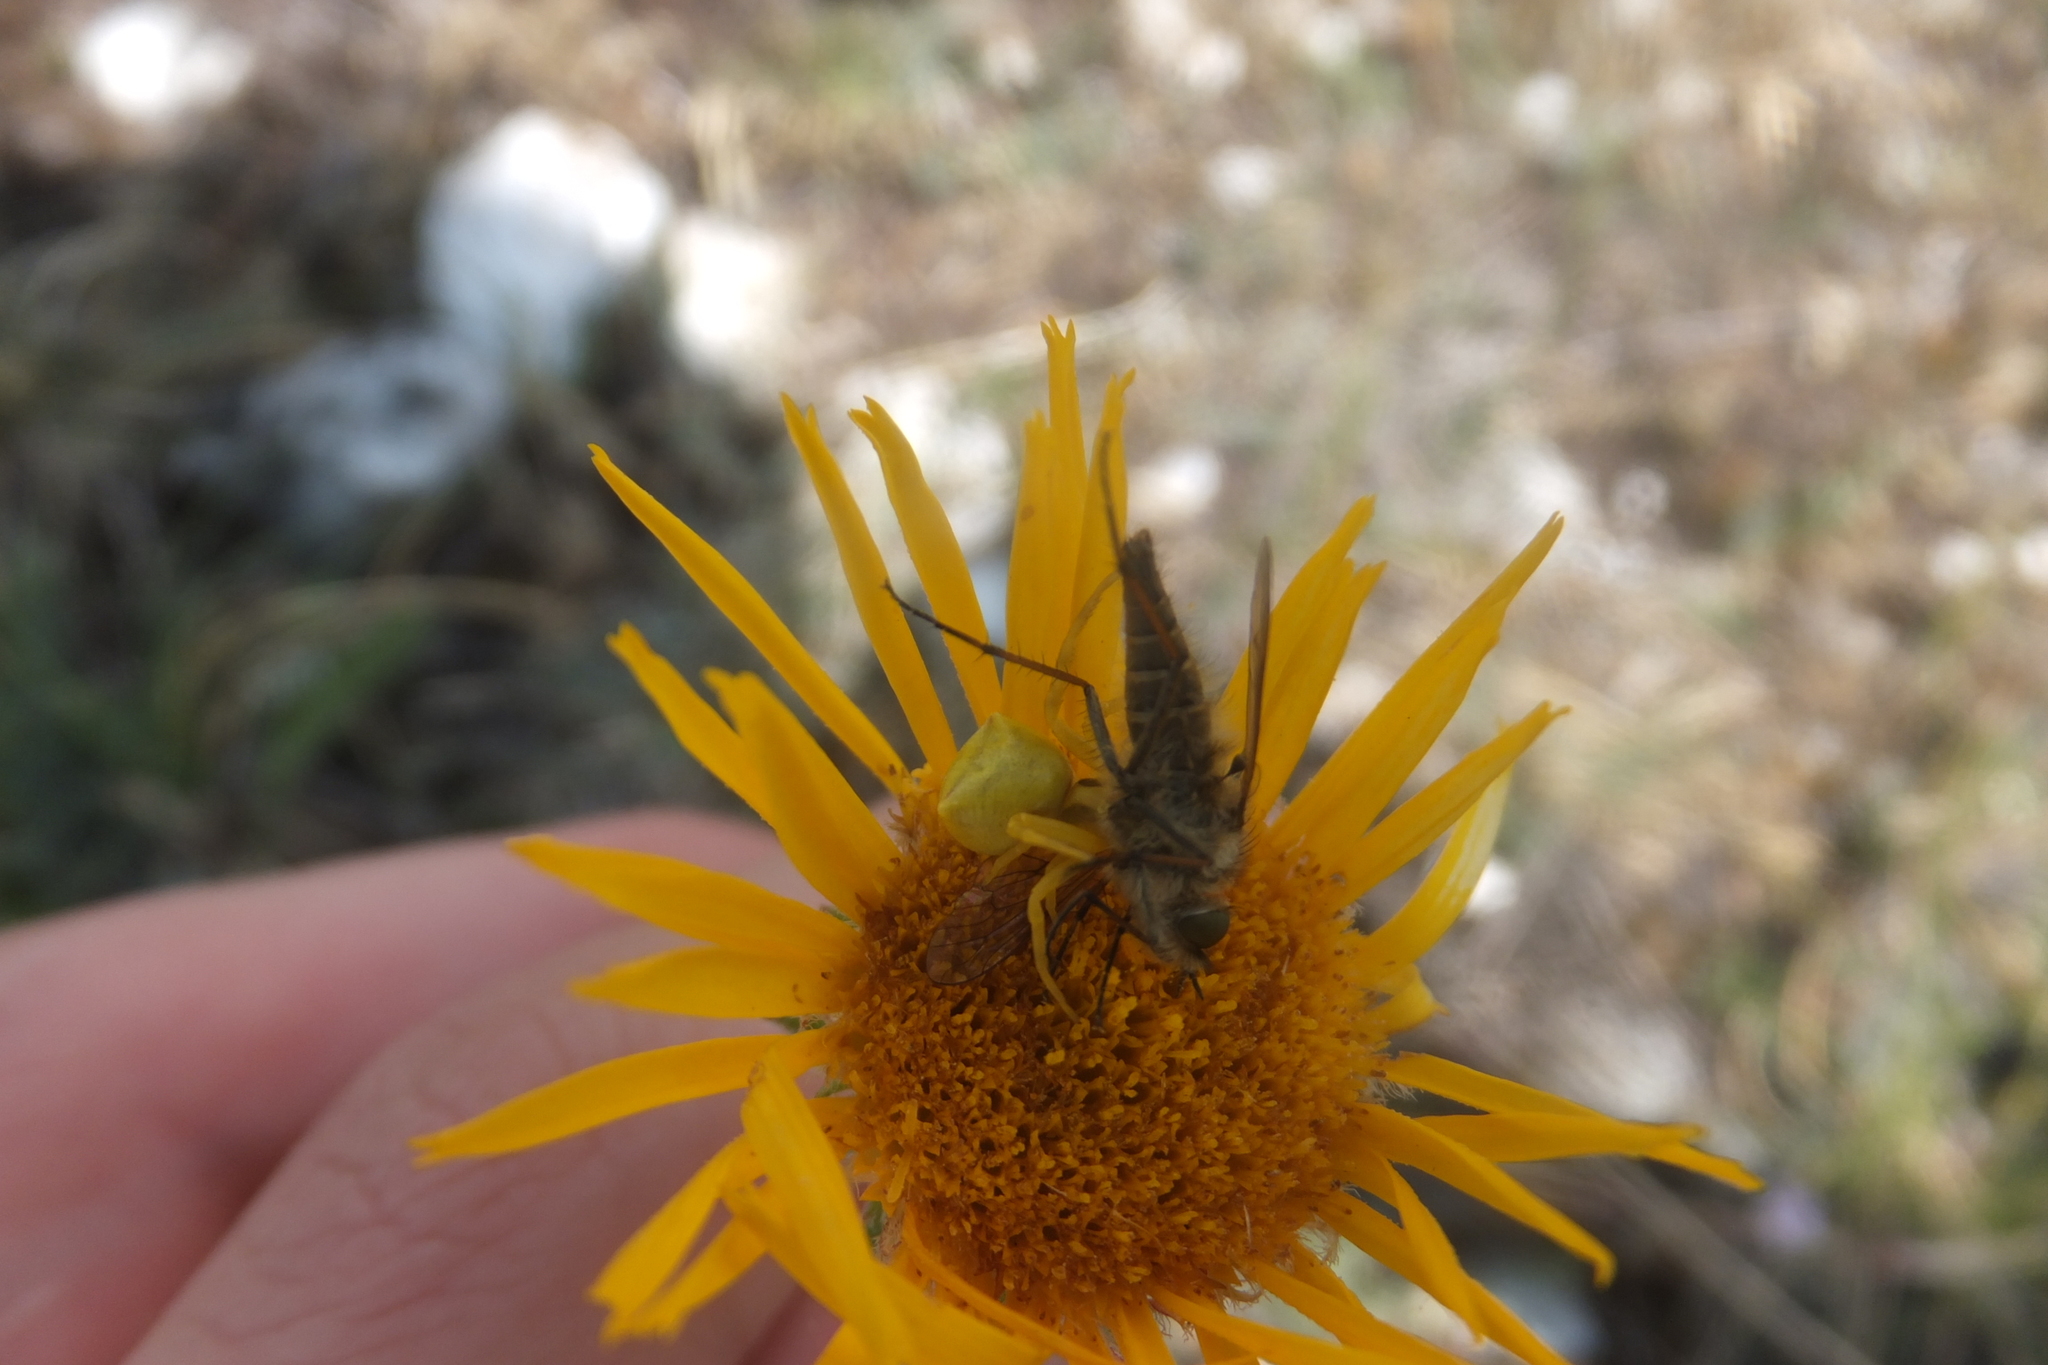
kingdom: Animalia
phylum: Arthropoda
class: Arachnida
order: Araneae
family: Thomisidae
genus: Thomisus
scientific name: Thomisus onustus
